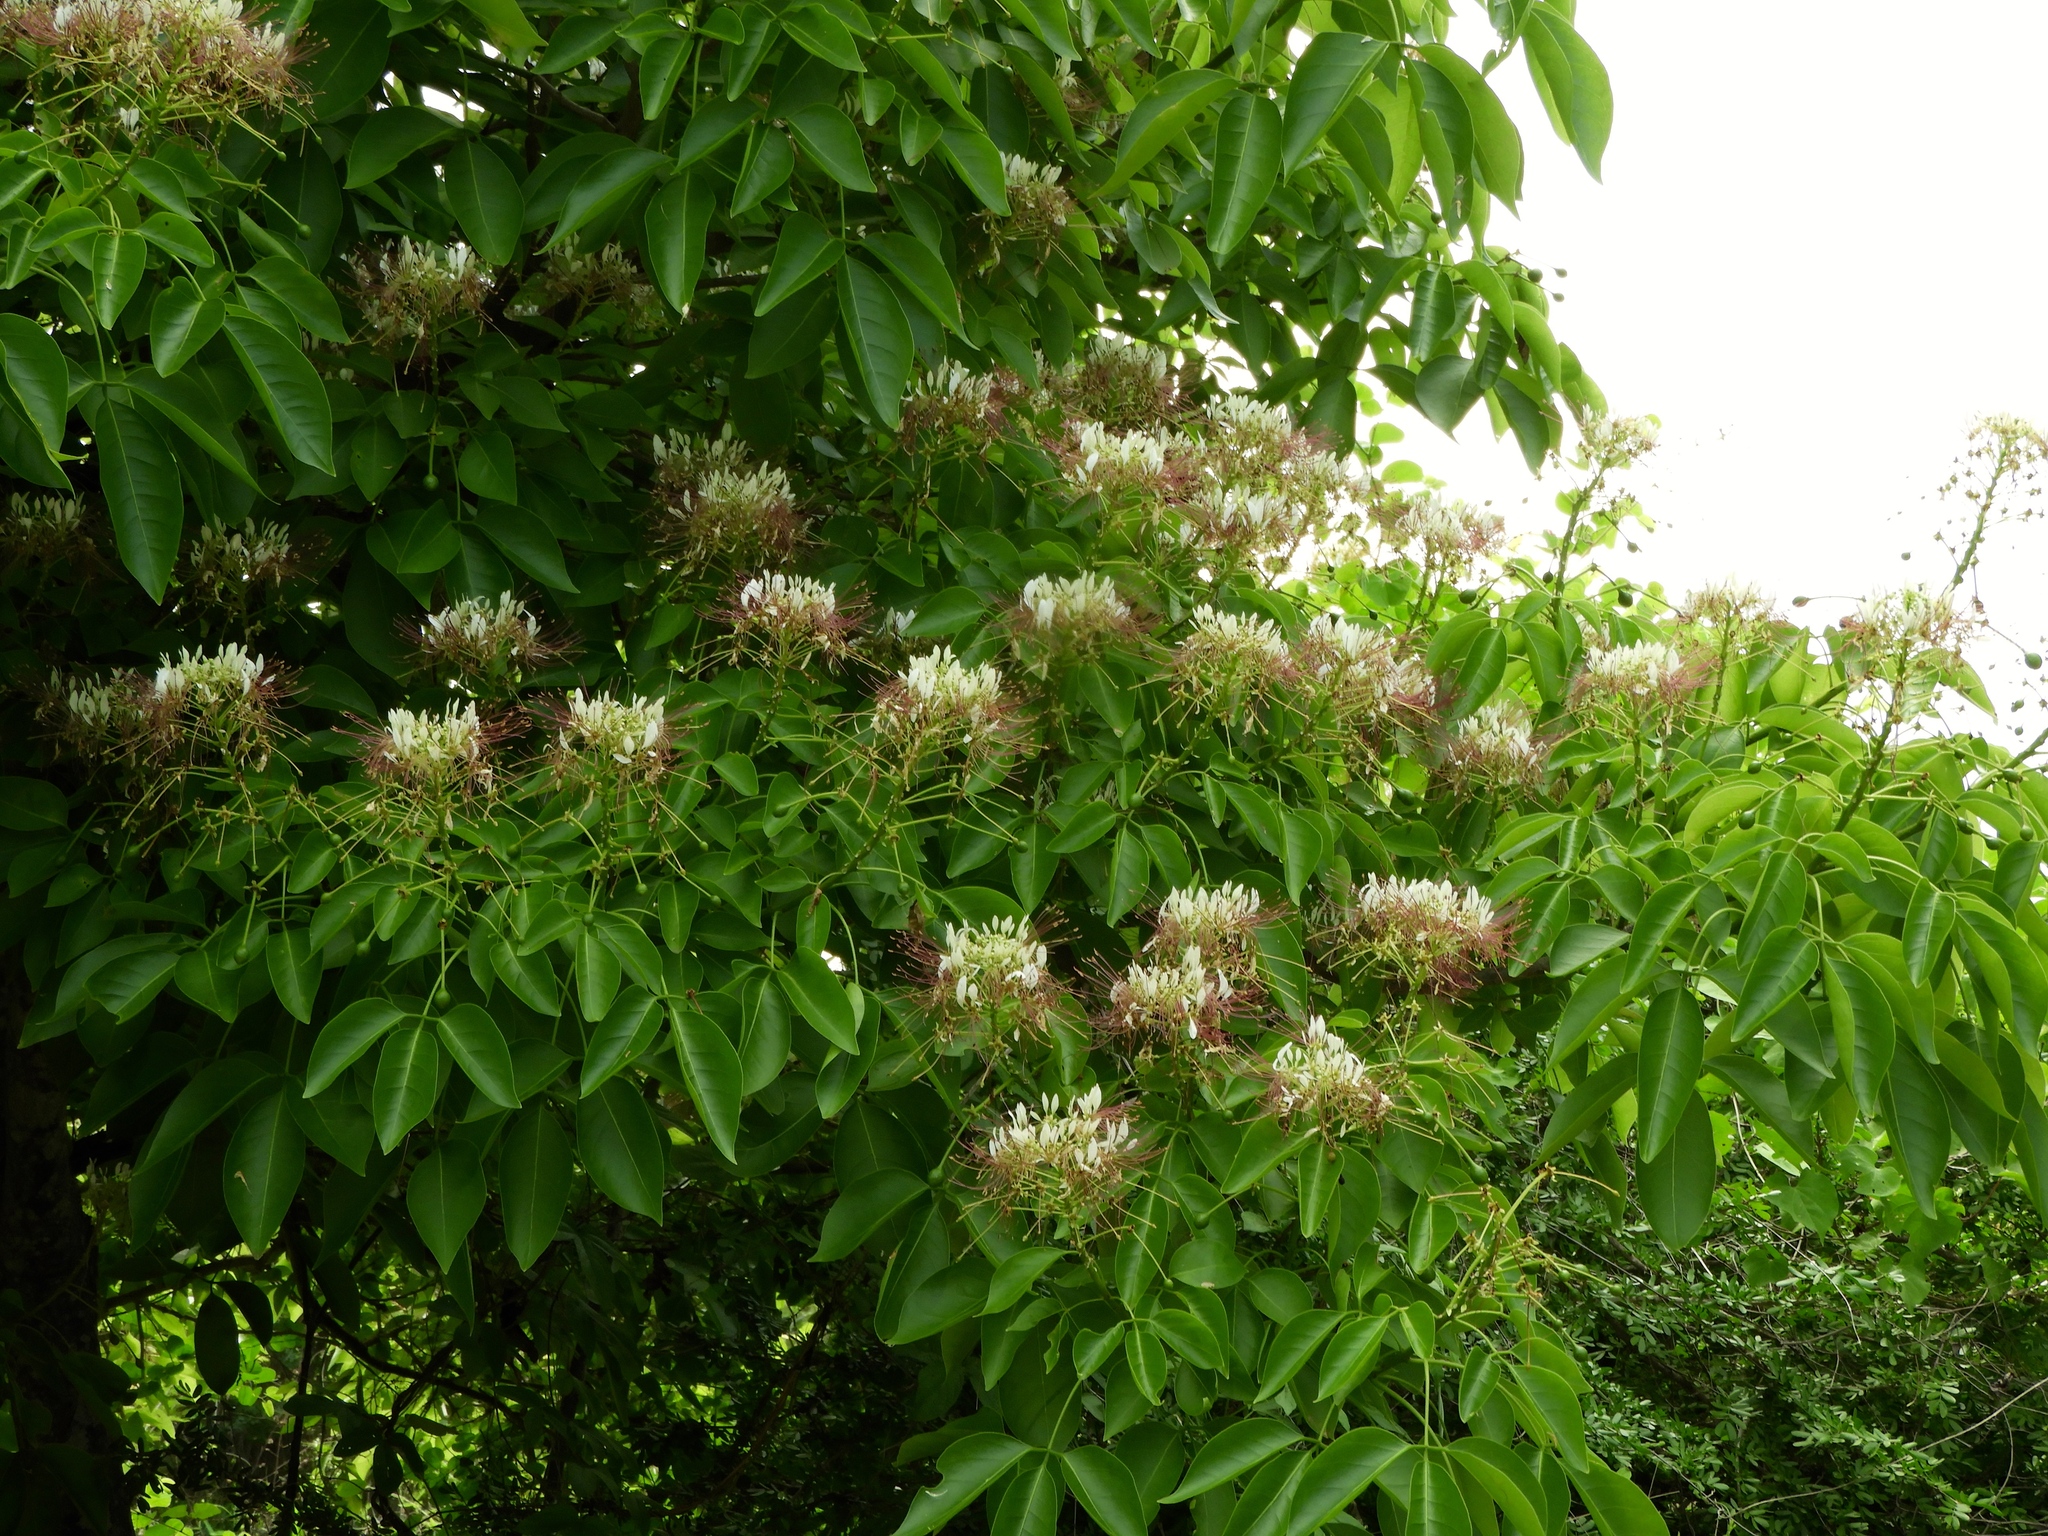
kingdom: Plantae
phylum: Tracheophyta
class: Magnoliopsida
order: Brassicales
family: Capparaceae
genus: Crateva
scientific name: Crateva tapia
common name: Garlic-pear
